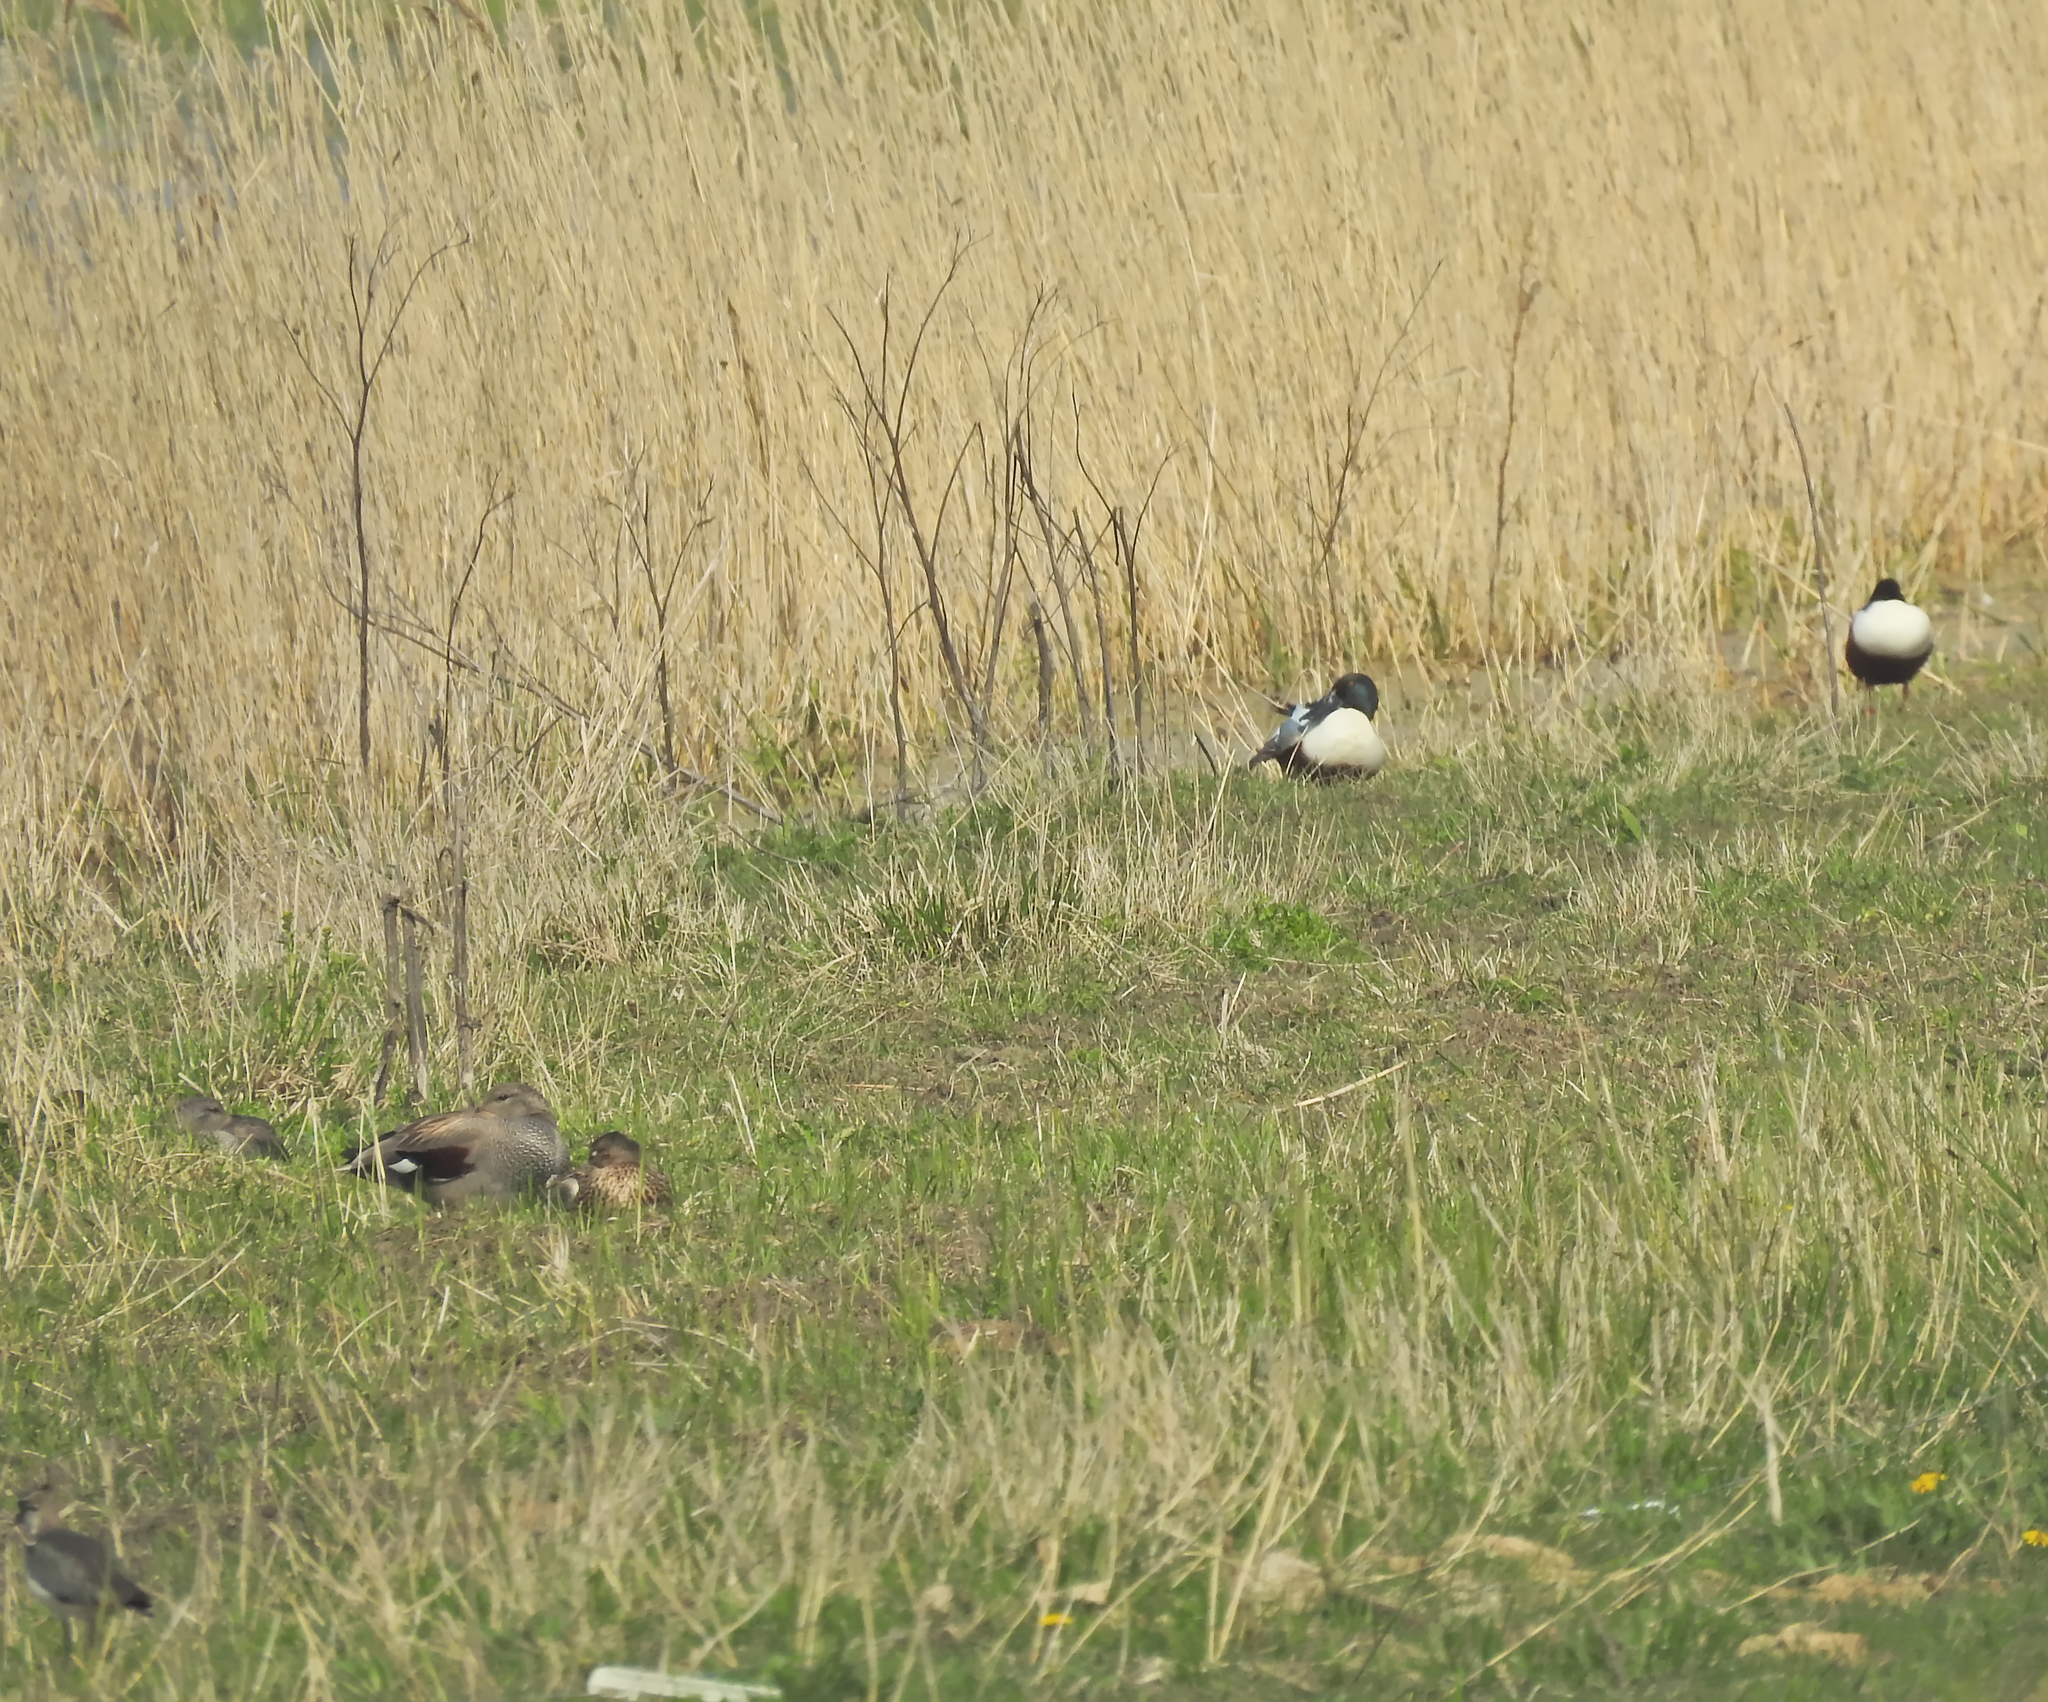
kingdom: Animalia
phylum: Chordata
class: Aves
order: Anseriformes
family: Anatidae
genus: Mareca
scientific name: Mareca strepera
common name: Gadwall
